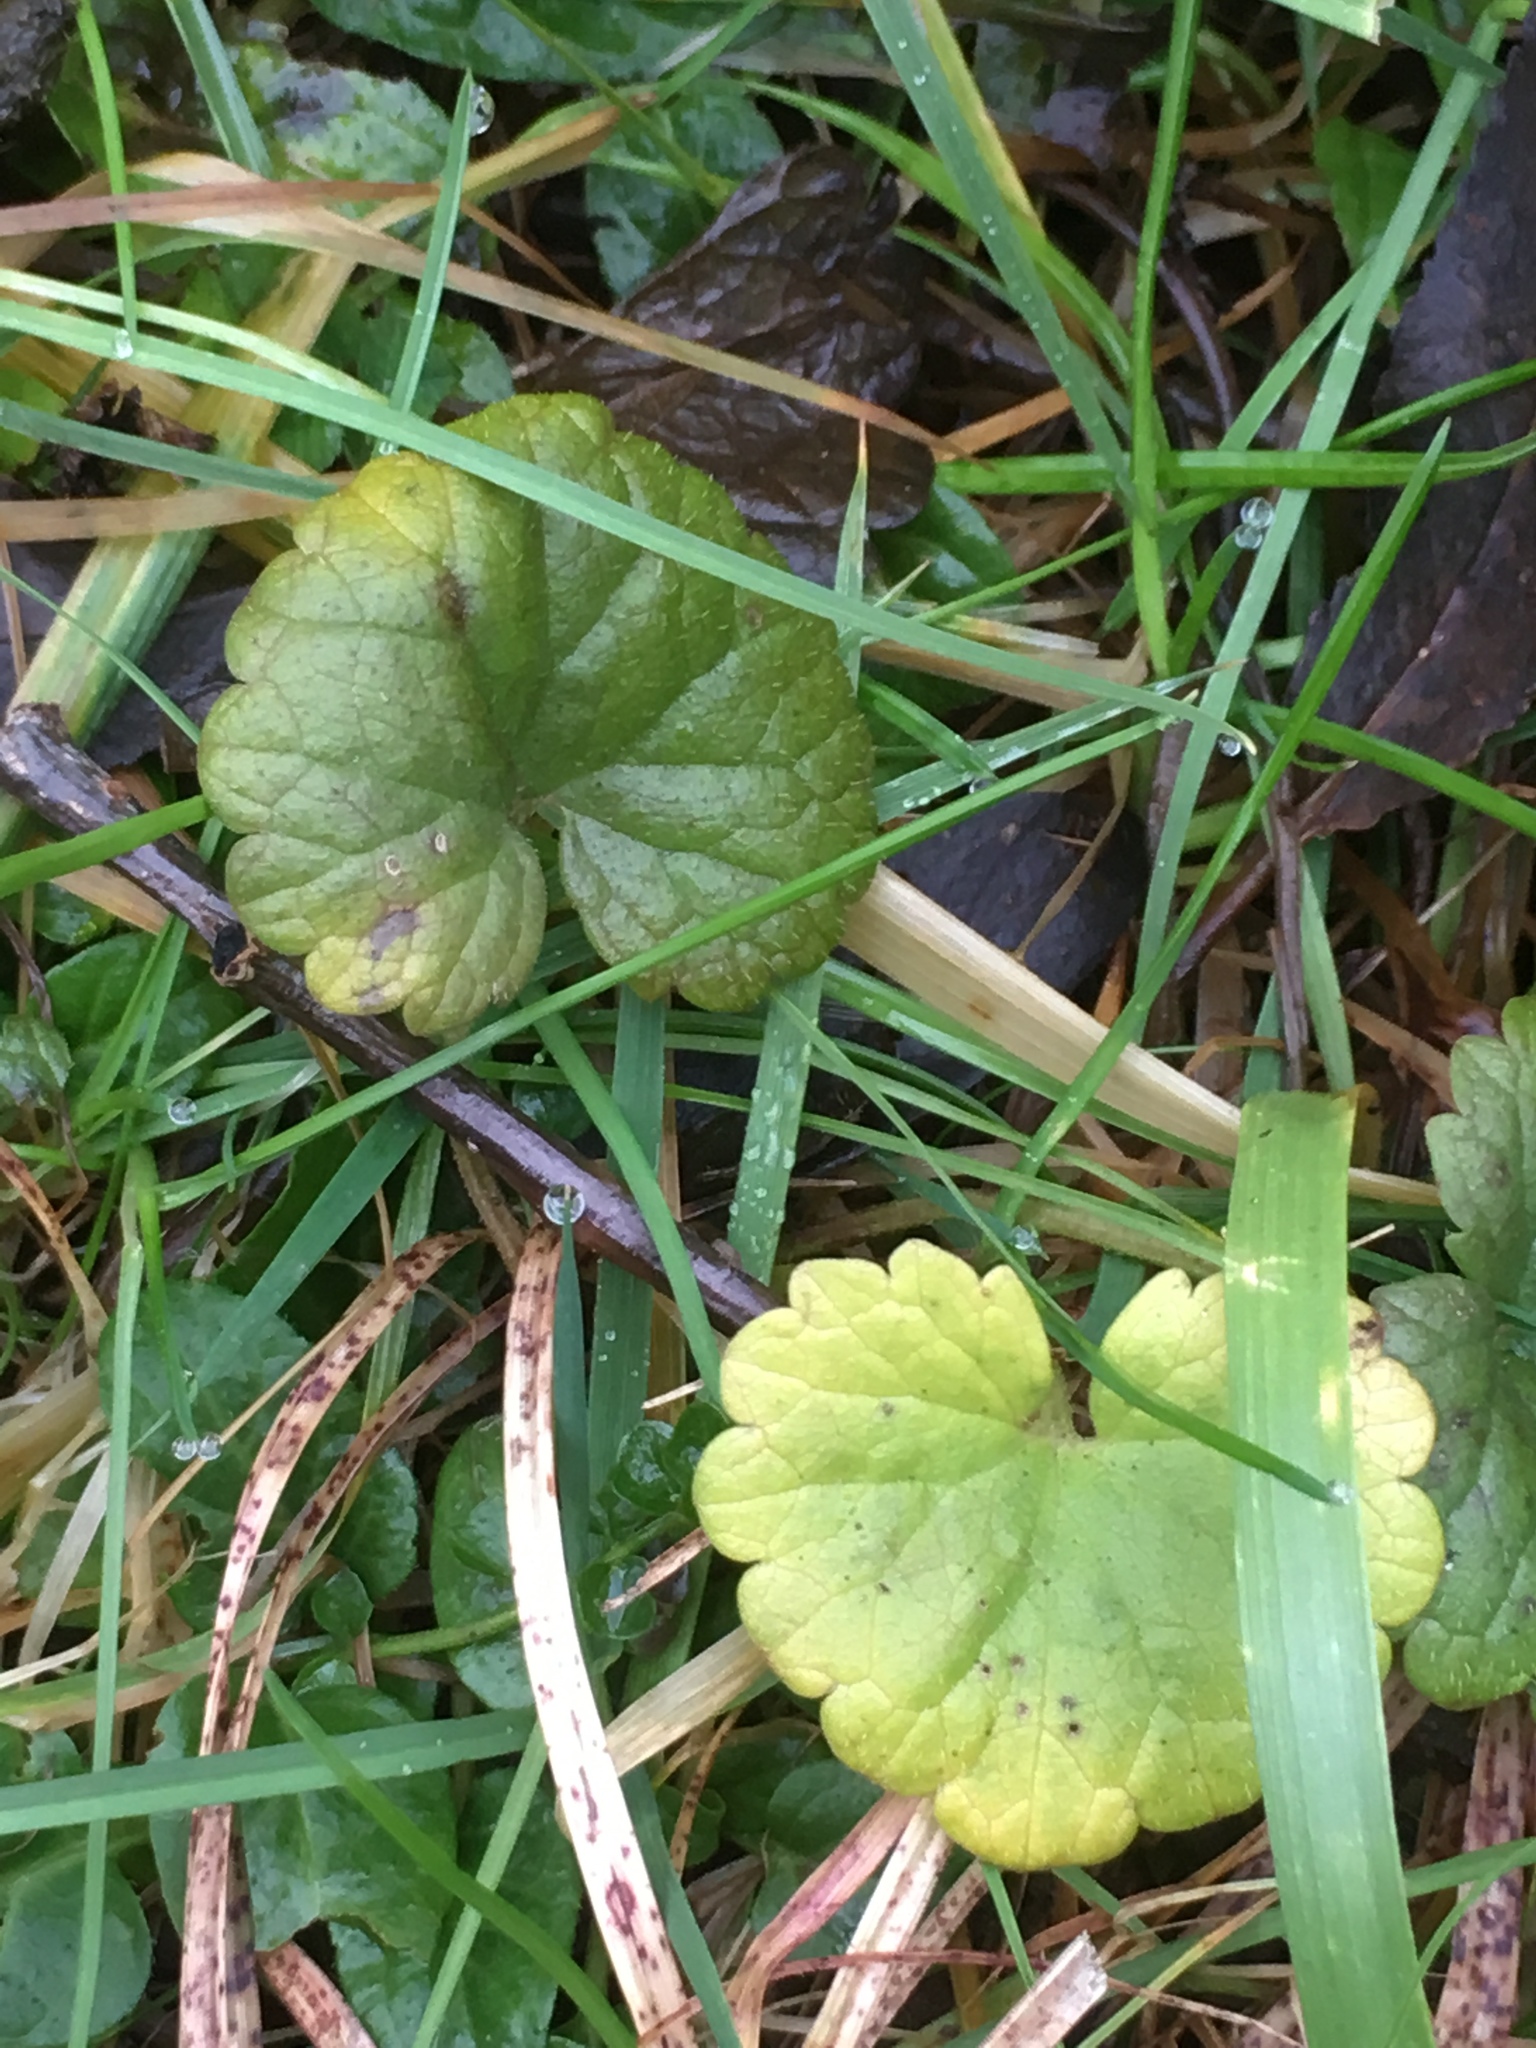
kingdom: Plantae
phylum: Tracheophyta
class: Magnoliopsida
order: Lamiales
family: Lamiaceae
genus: Glechoma
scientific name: Glechoma hederacea
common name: Ground ivy
